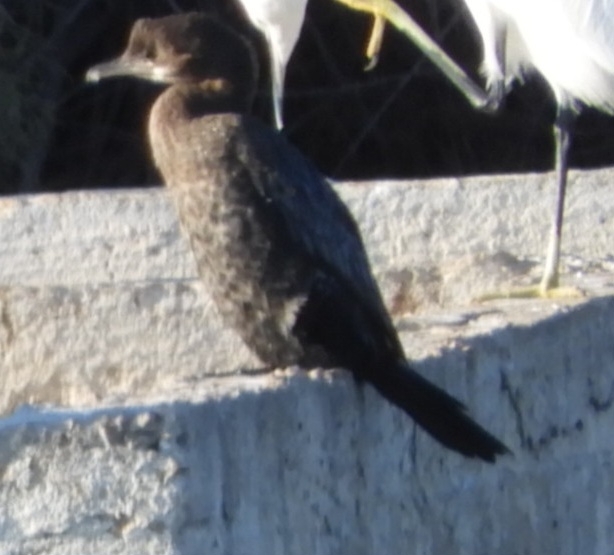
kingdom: Animalia
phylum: Chordata
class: Aves
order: Suliformes
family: Phalacrocoracidae
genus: Microcarbo
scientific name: Microcarbo pygmaeus
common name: Pygmy cormorant
